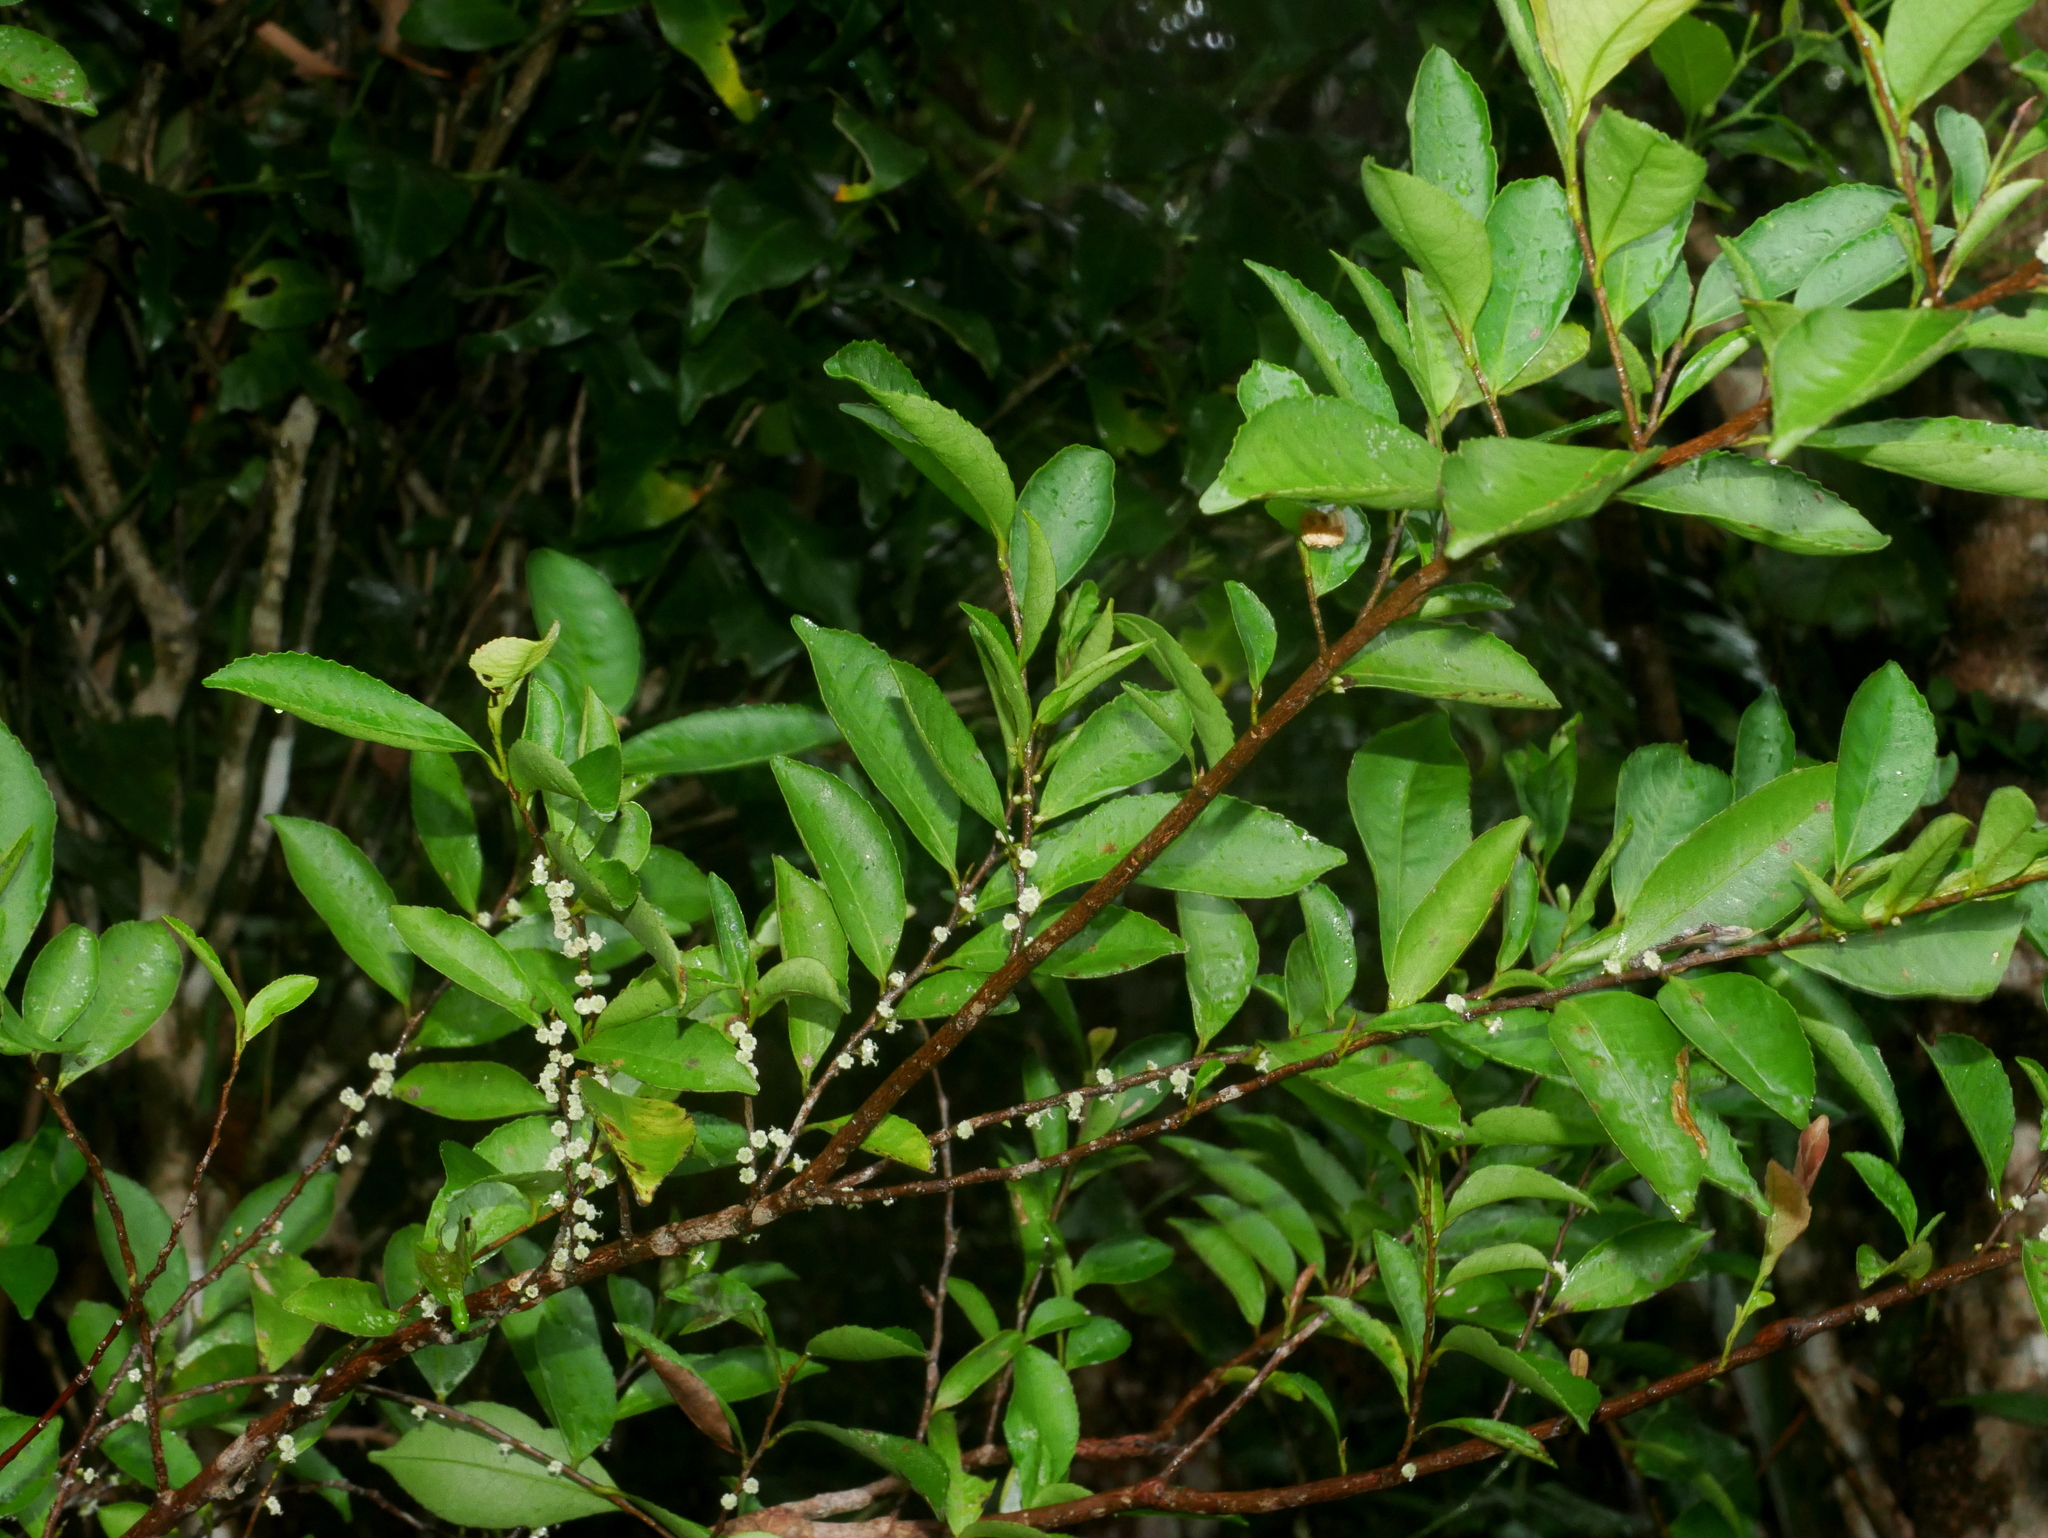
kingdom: Plantae
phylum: Tracheophyta
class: Magnoliopsida
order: Ericales
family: Pentaphylacaceae
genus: Eurya
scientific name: Eurya septata
